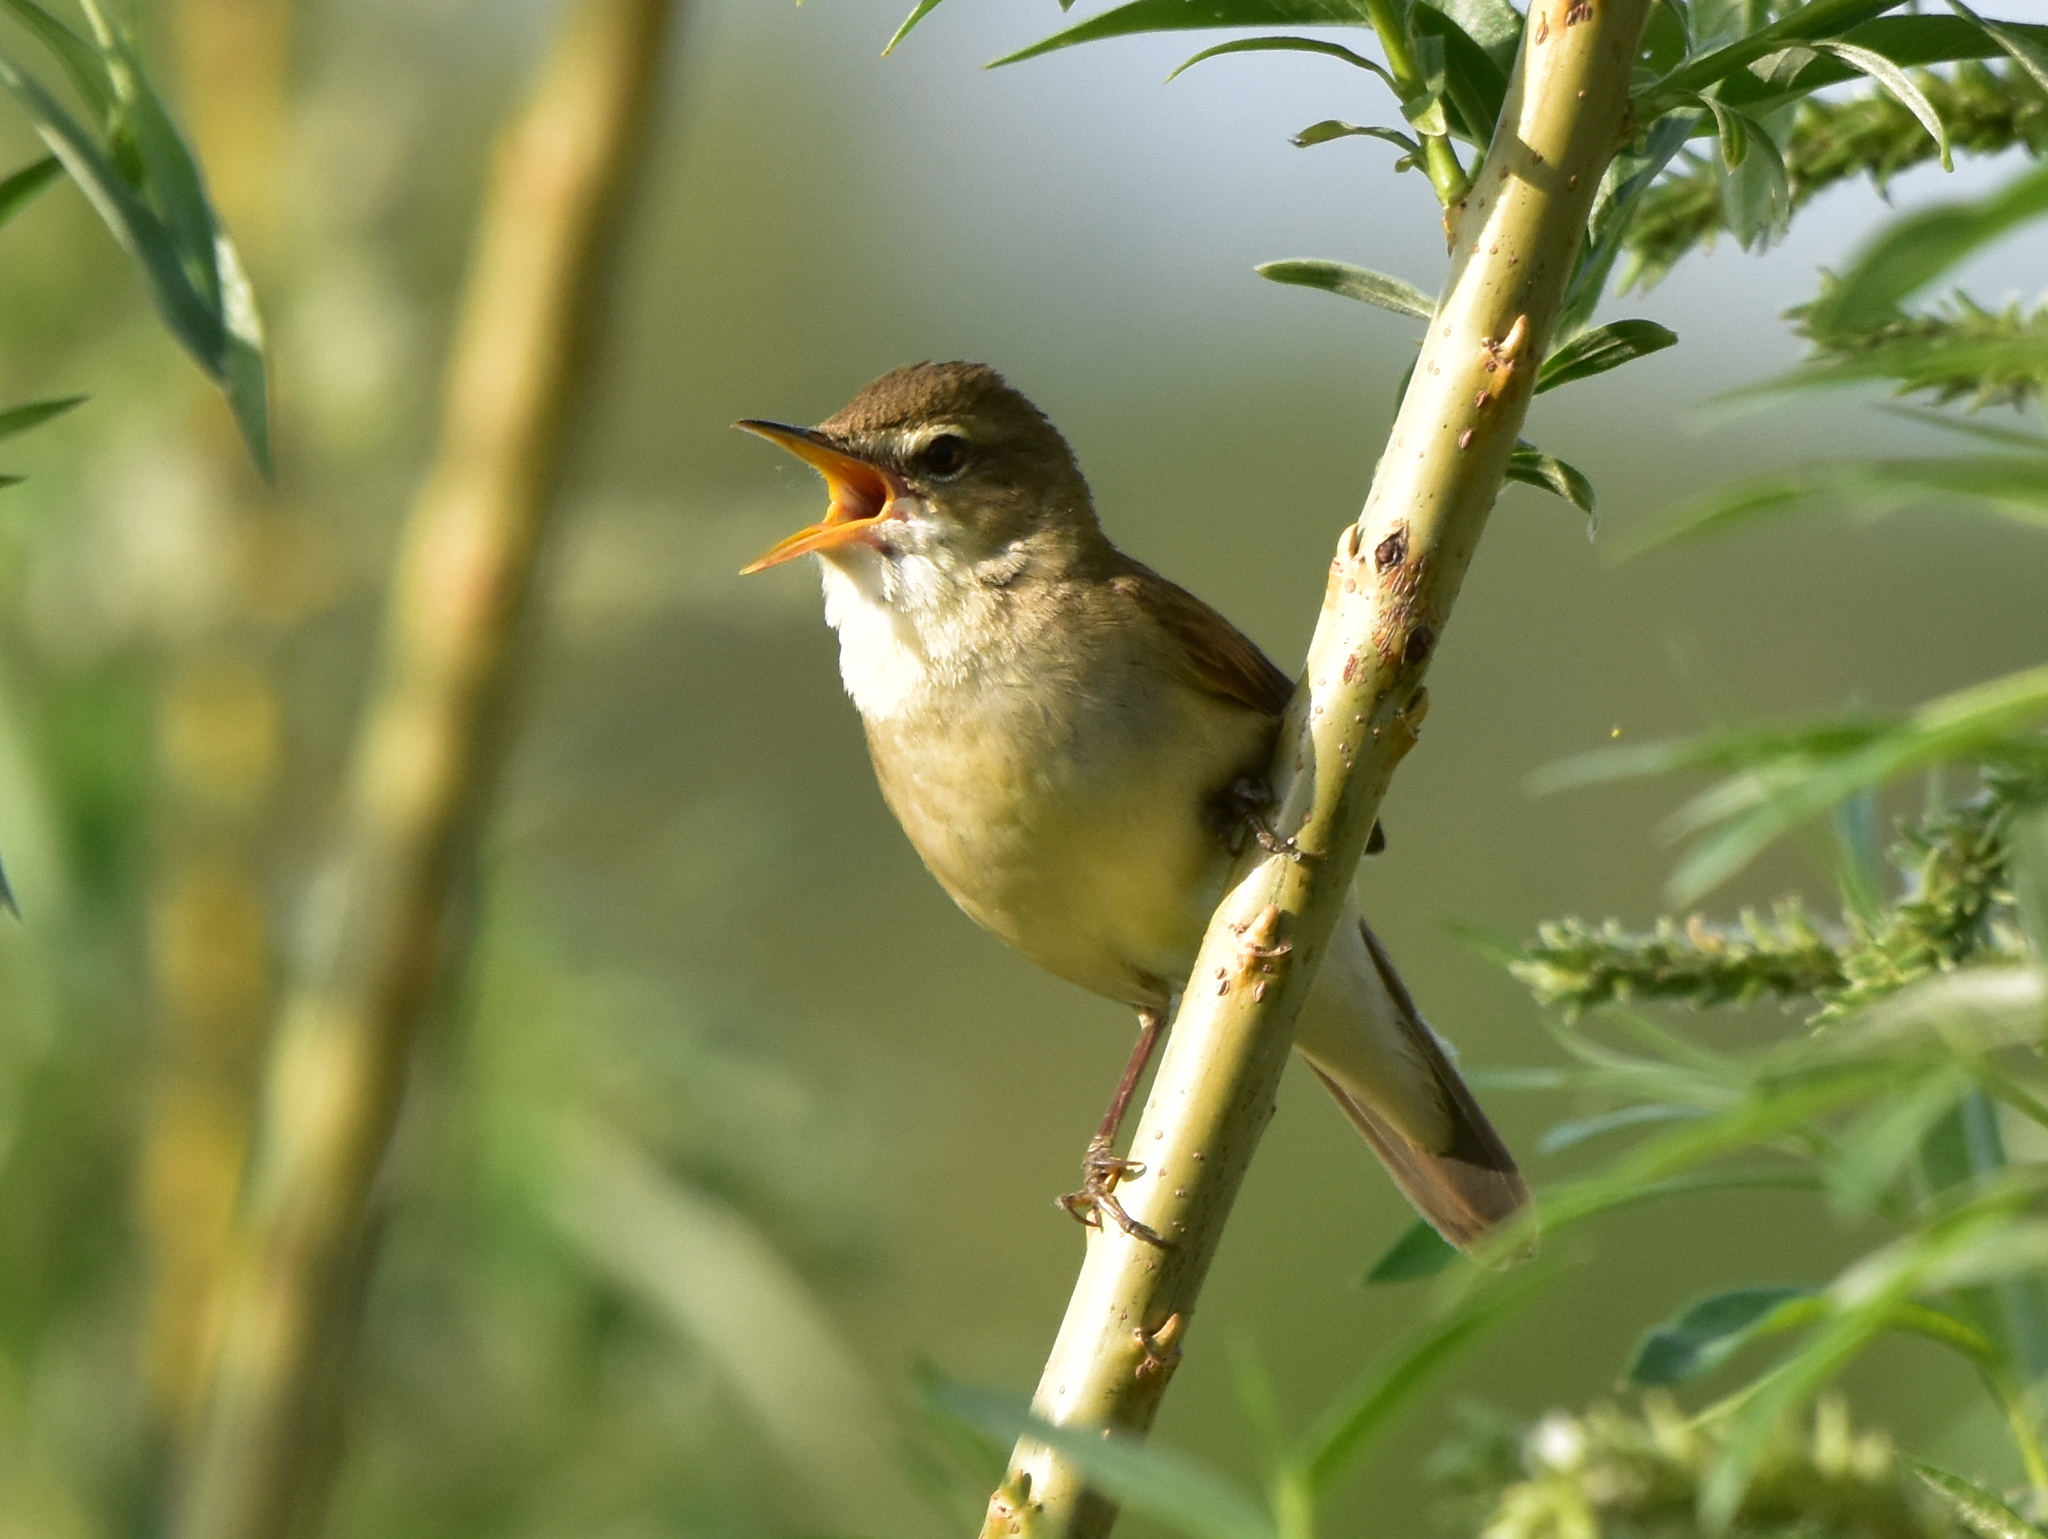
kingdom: Animalia
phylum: Chordata
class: Aves
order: Passeriformes
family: Acrocephalidae
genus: Acrocephalus
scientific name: Acrocephalus dumetorum
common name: Blyth's reed warbler
